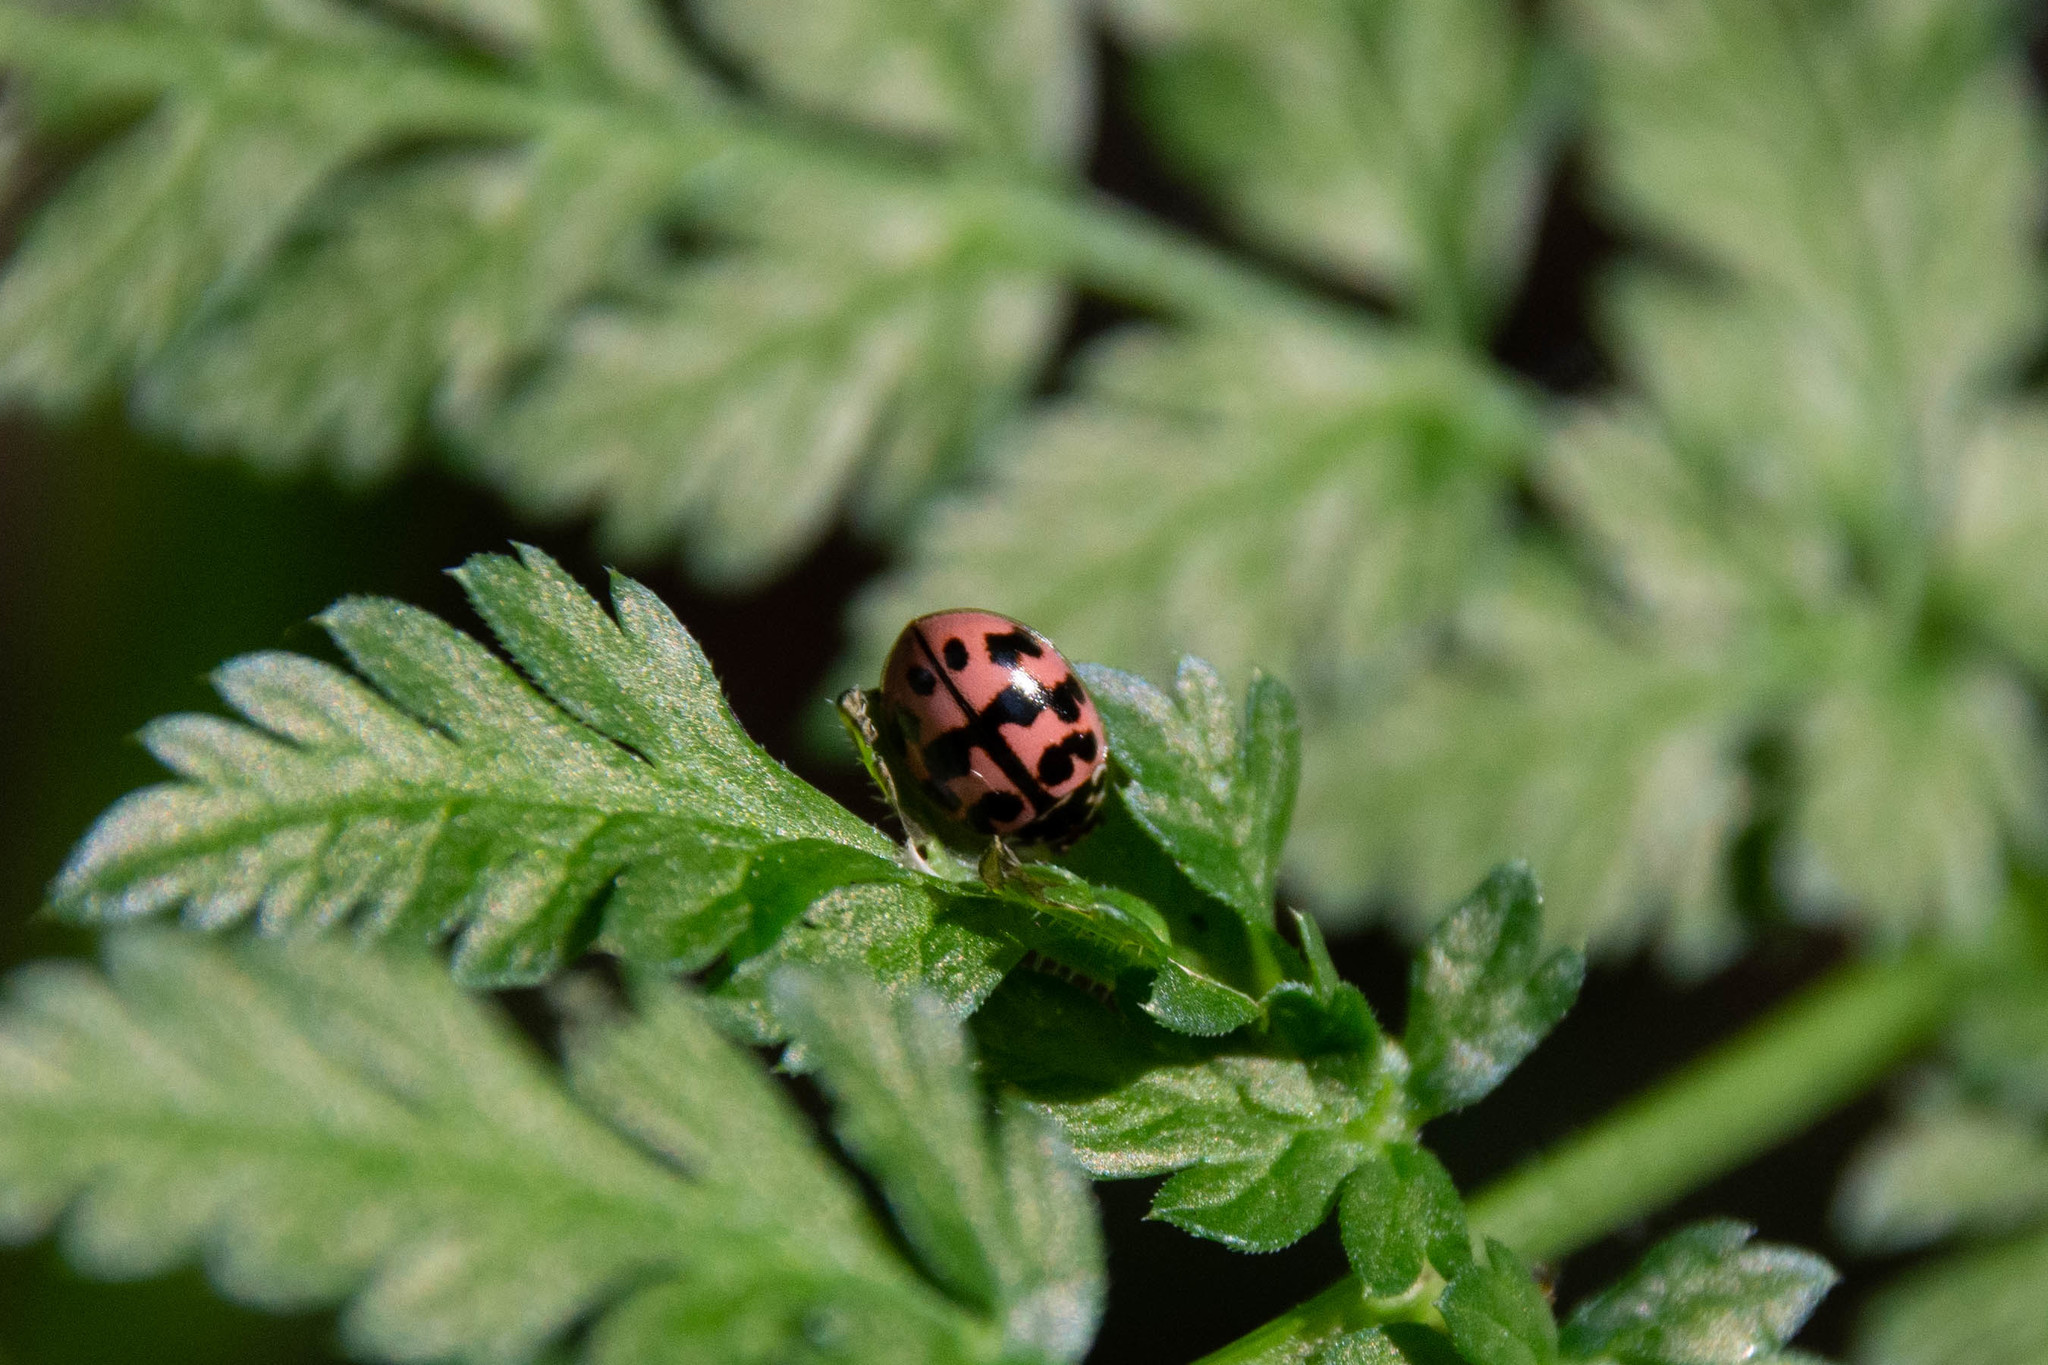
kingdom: Animalia
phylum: Arthropoda
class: Insecta
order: Coleoptera
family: Coccinellidae
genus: Oenopia
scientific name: Oenopia conglobata
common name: Ladybird beetle
